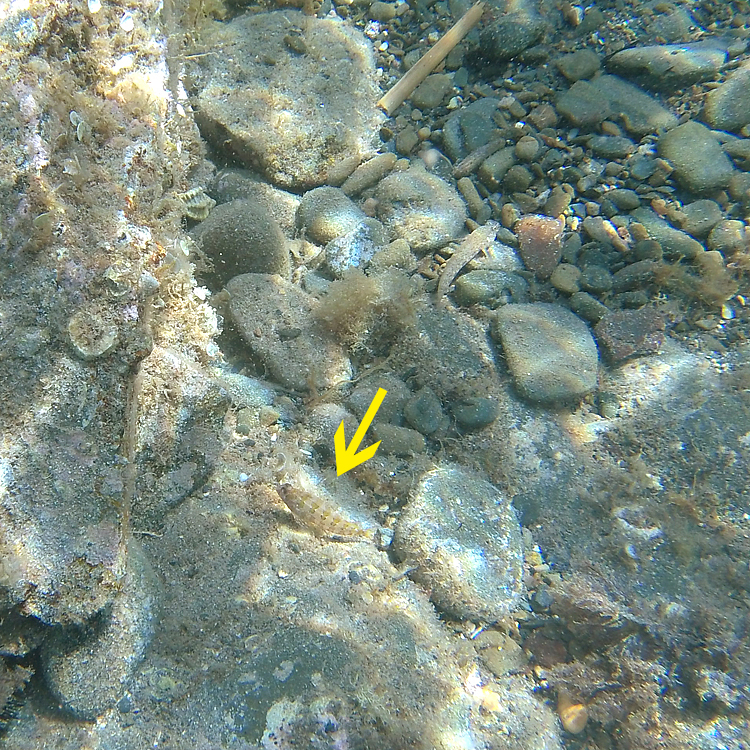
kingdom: Animalia
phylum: Chordata
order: Perciformes
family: Blenniidae
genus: Parablennius
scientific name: Parablennius gattorugine
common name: Tompot blenny
